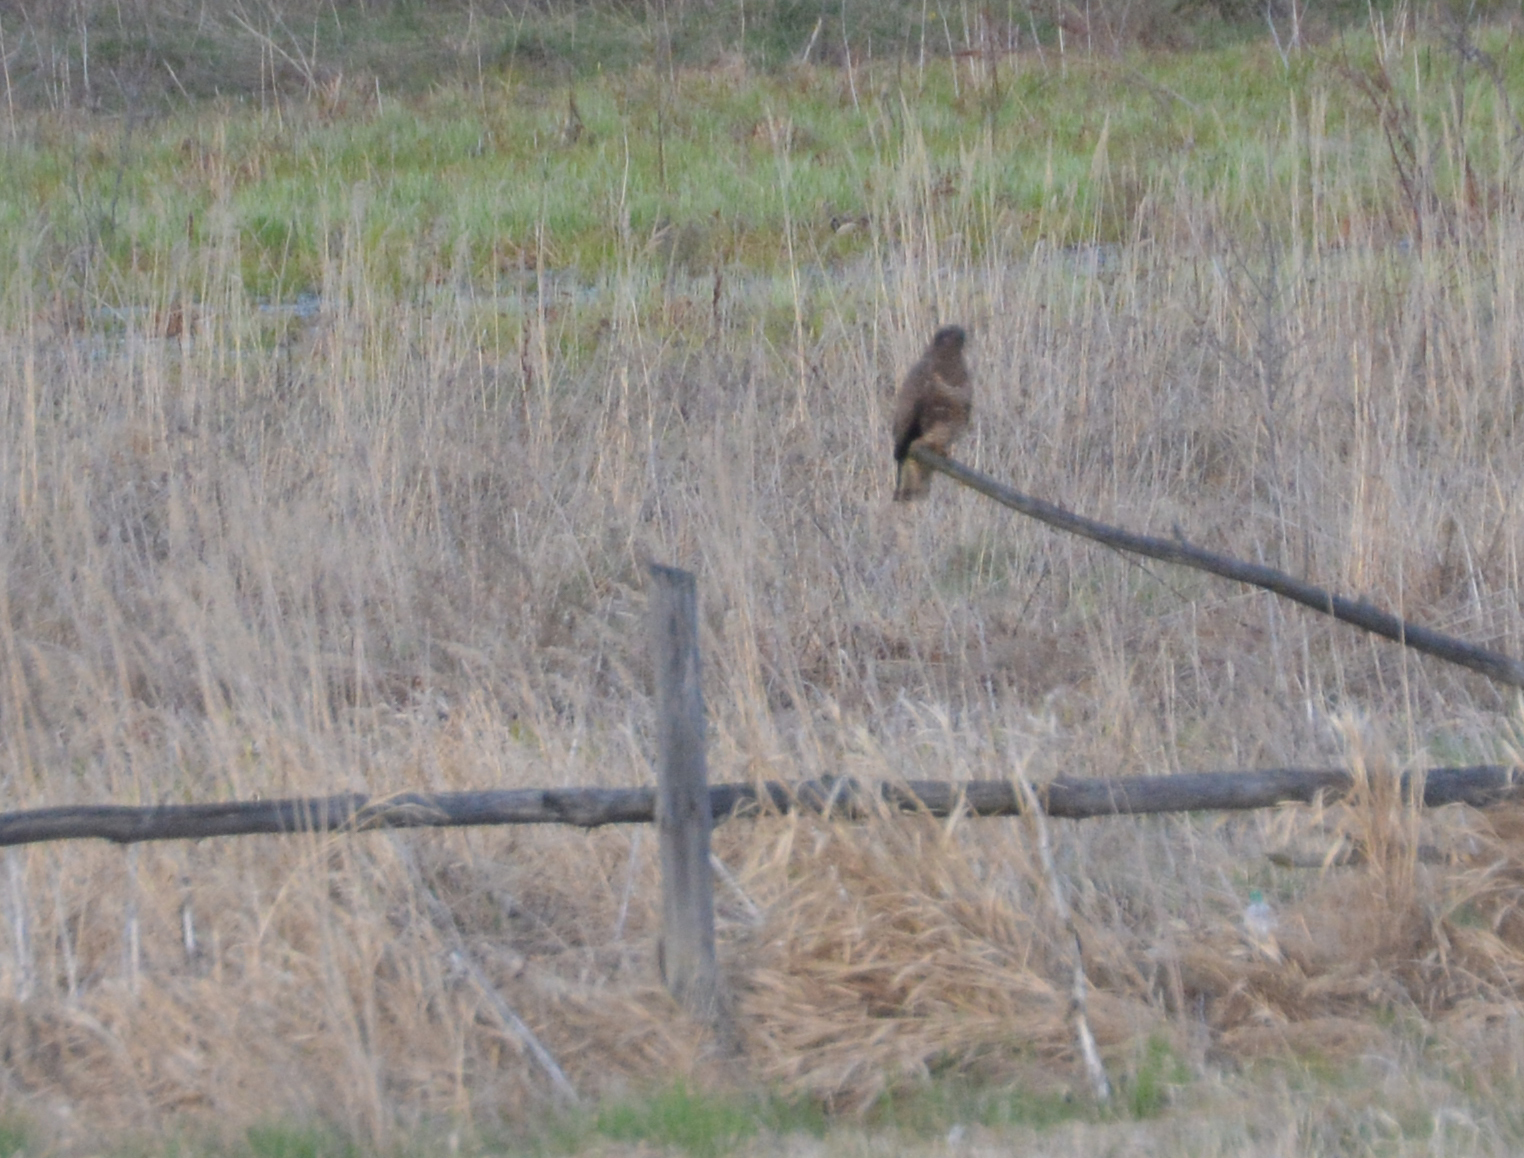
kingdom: Animalia
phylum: Chordata
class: Aves
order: Accipitriformes
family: Accipitridae
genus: Buteo
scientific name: Buteo buteo
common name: Common buzzard
